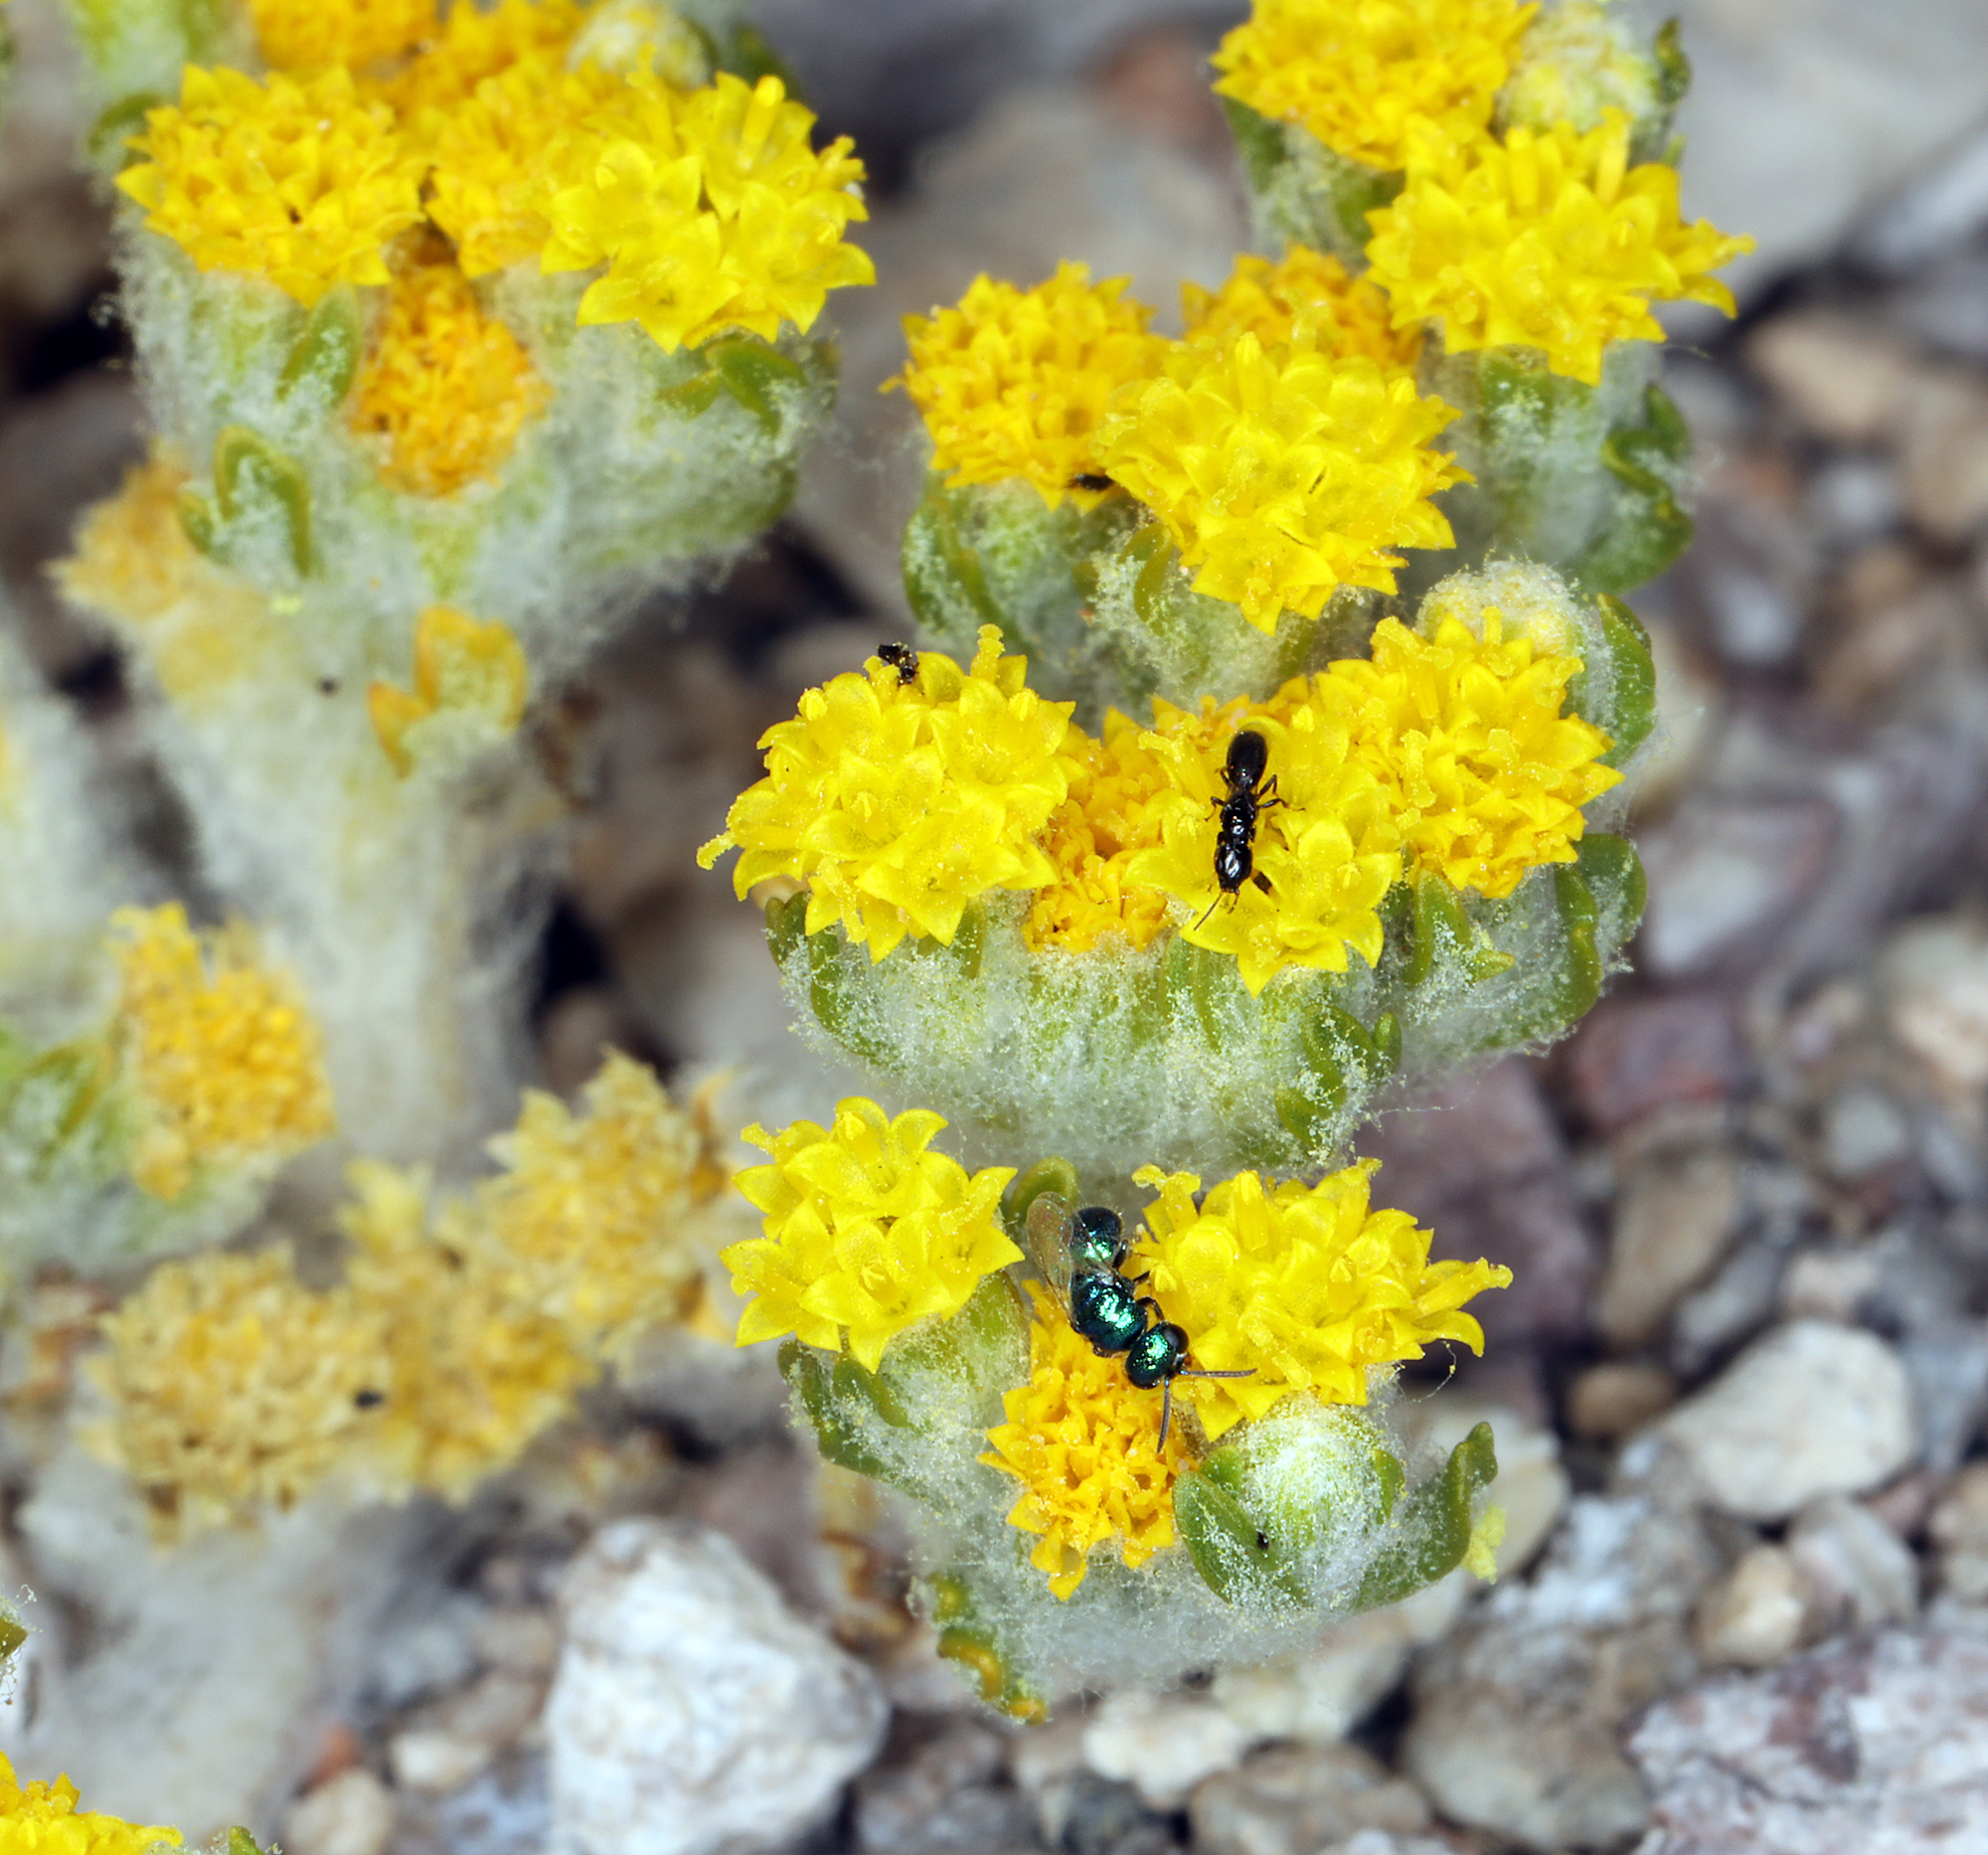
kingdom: Plantae
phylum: Tracheophyta
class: Magnoliopsida
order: Asterales
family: Asteraceae
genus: Eriophyllum
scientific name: Eriophyllum pringlei
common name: Pringle's woolly-sunflower
